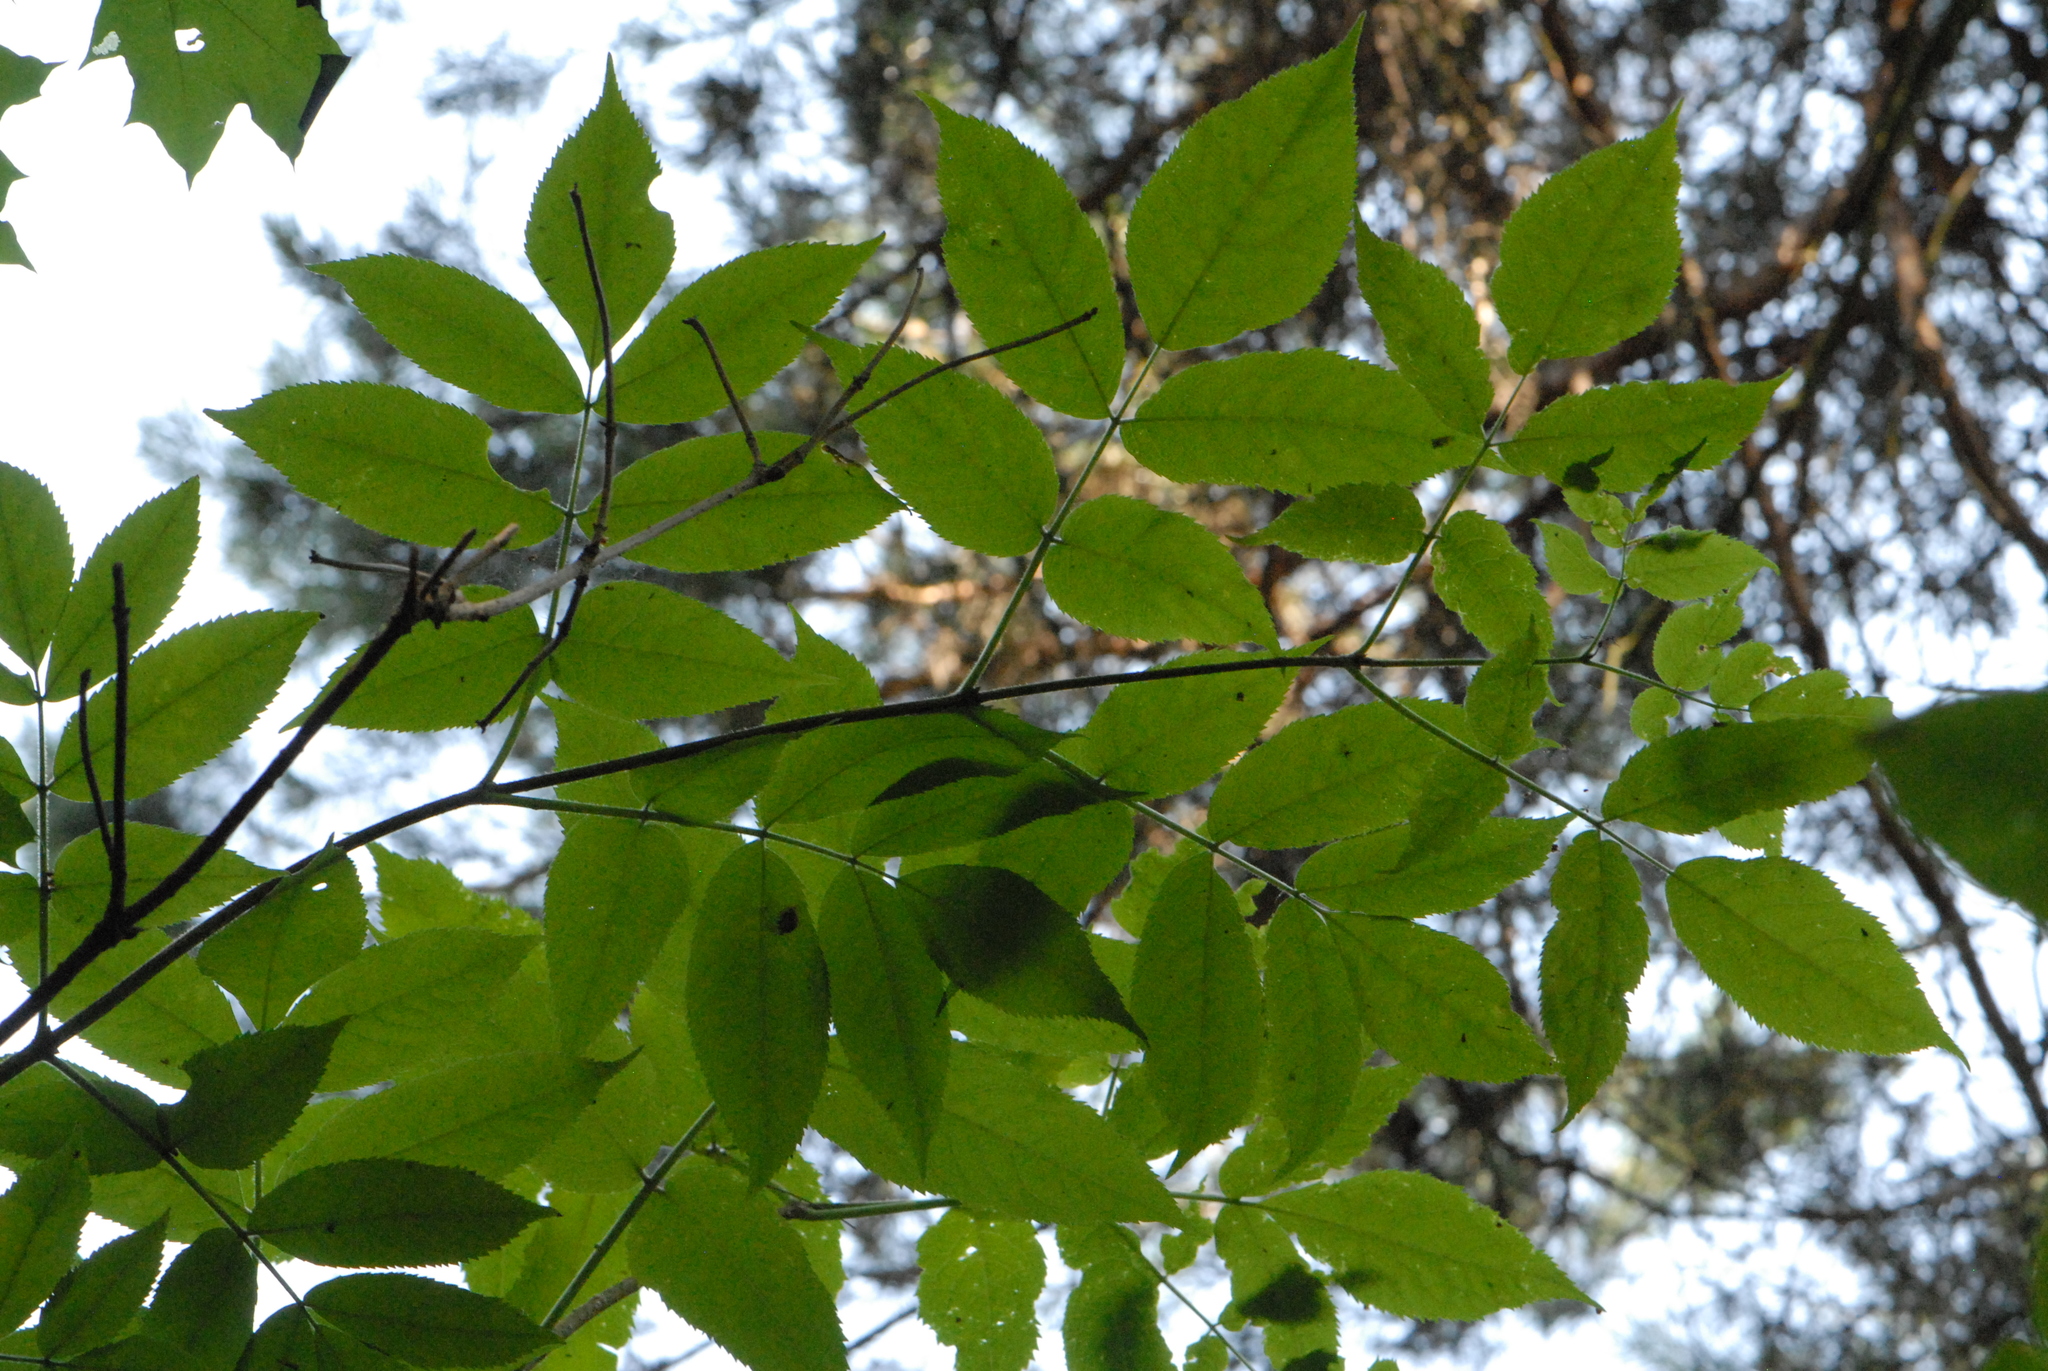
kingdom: Plantae
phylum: Tracheophyta
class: Magnoliopsida
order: Lamiales
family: Oleaceae
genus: Fraxinus
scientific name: Fraxinus pennsylvanica
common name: Green ash
